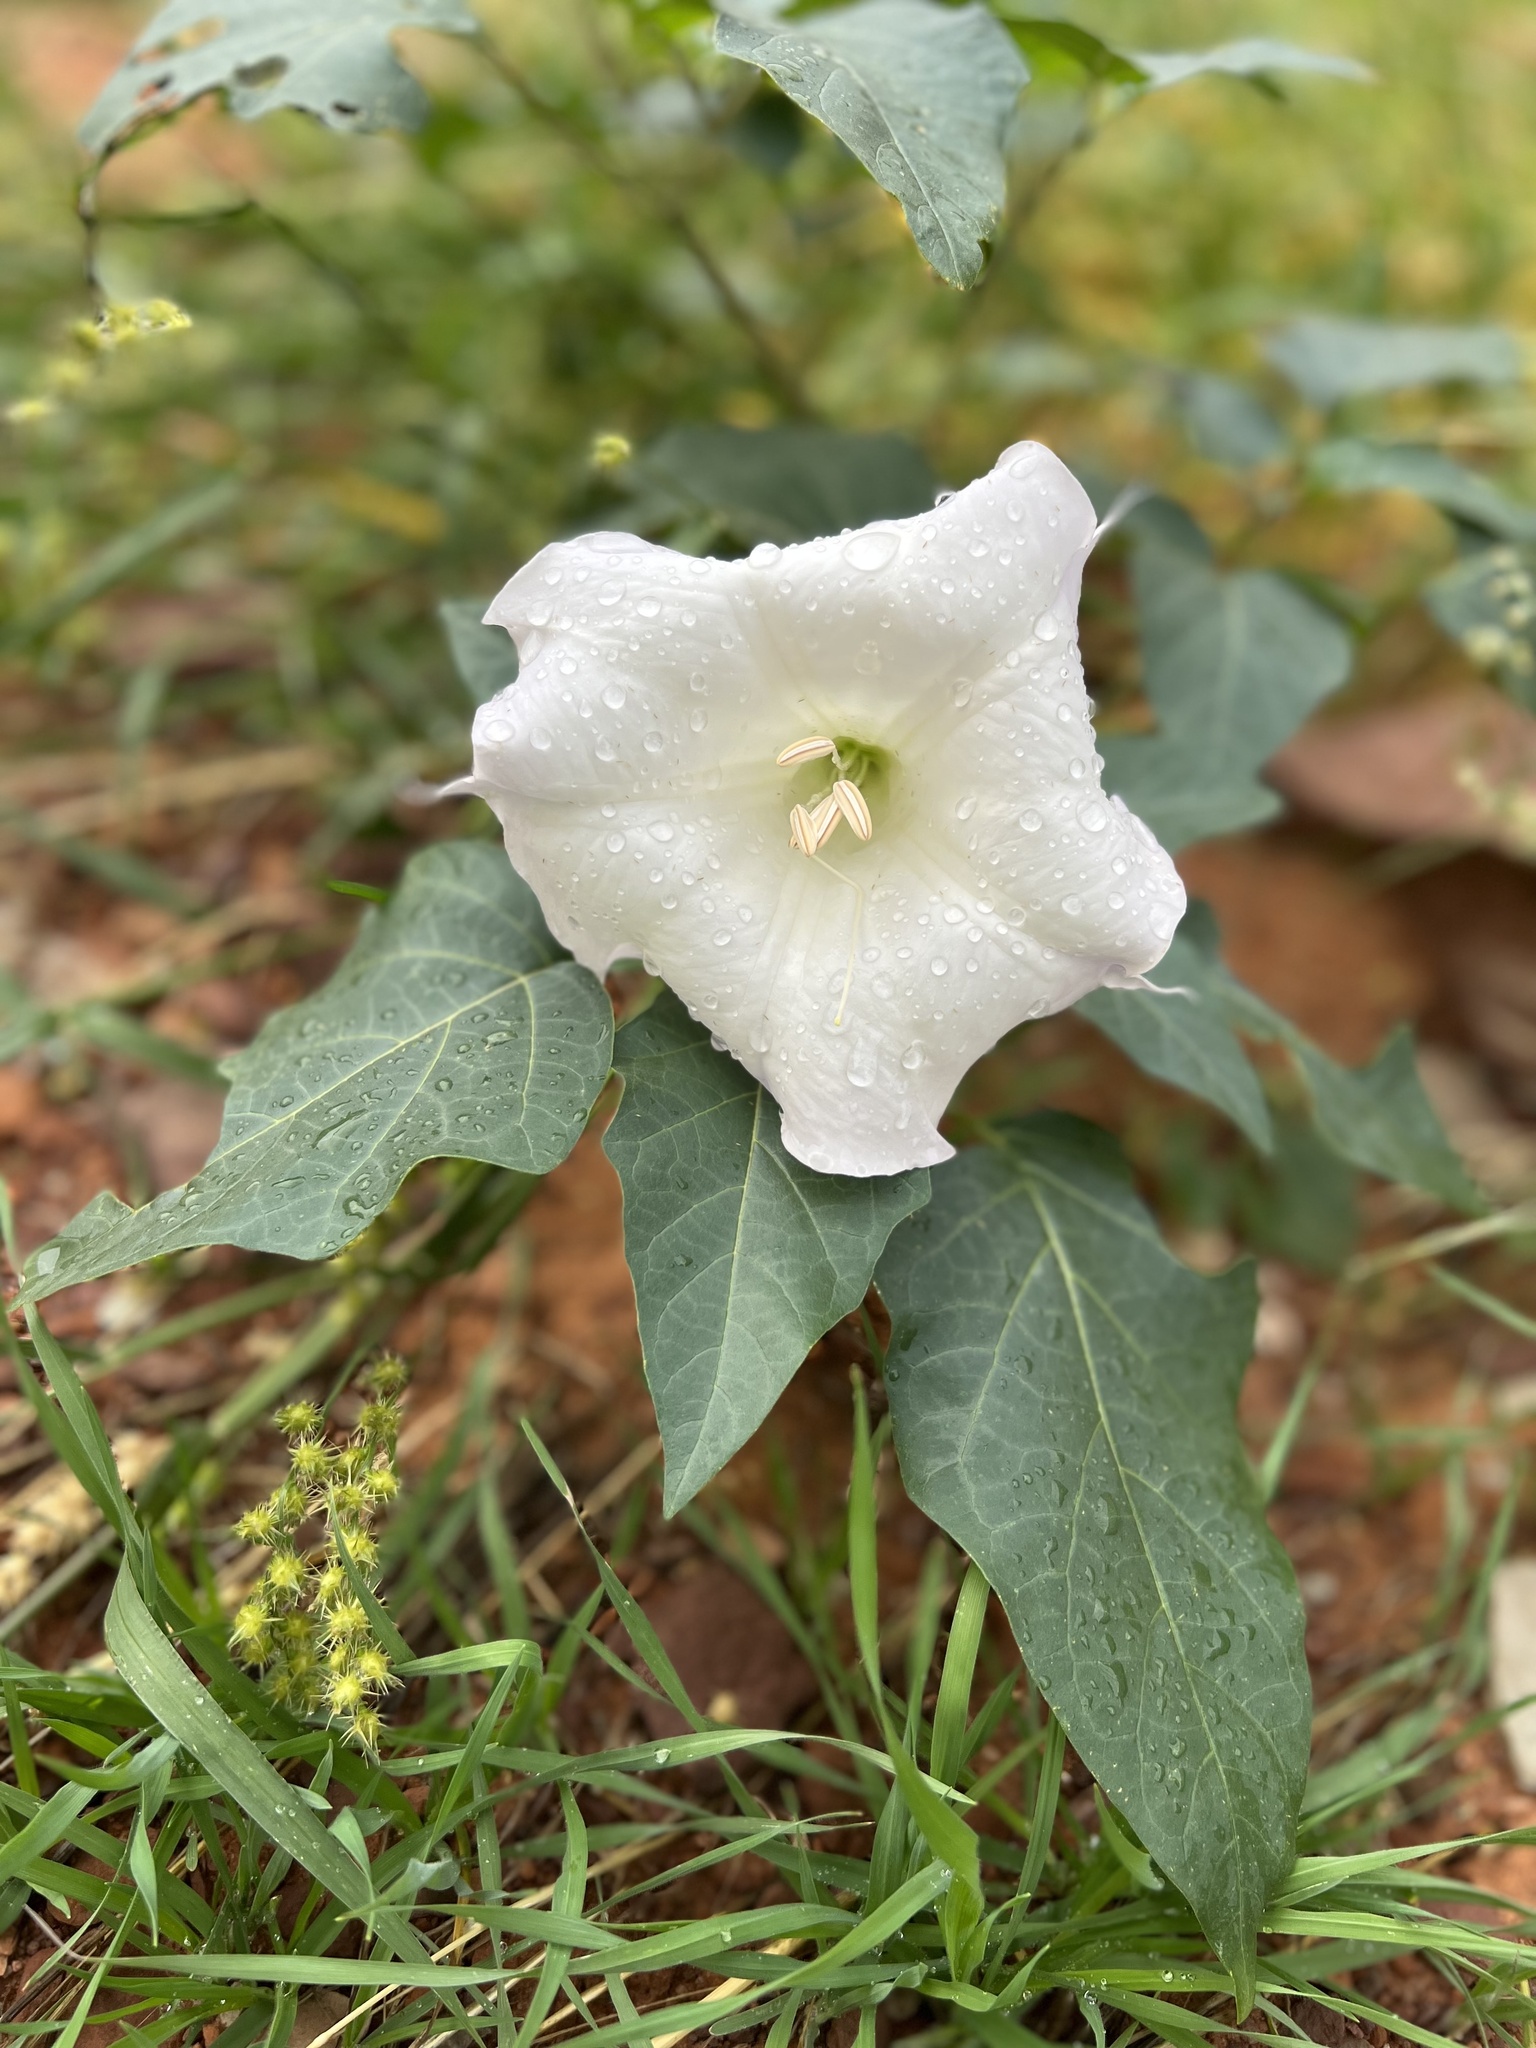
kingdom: Plantae
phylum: Tracheophyta
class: Magnoliopsida
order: Solanales
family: Solanaceae
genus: Datura
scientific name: Datura wrightii
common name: Sacred thorn-apple
